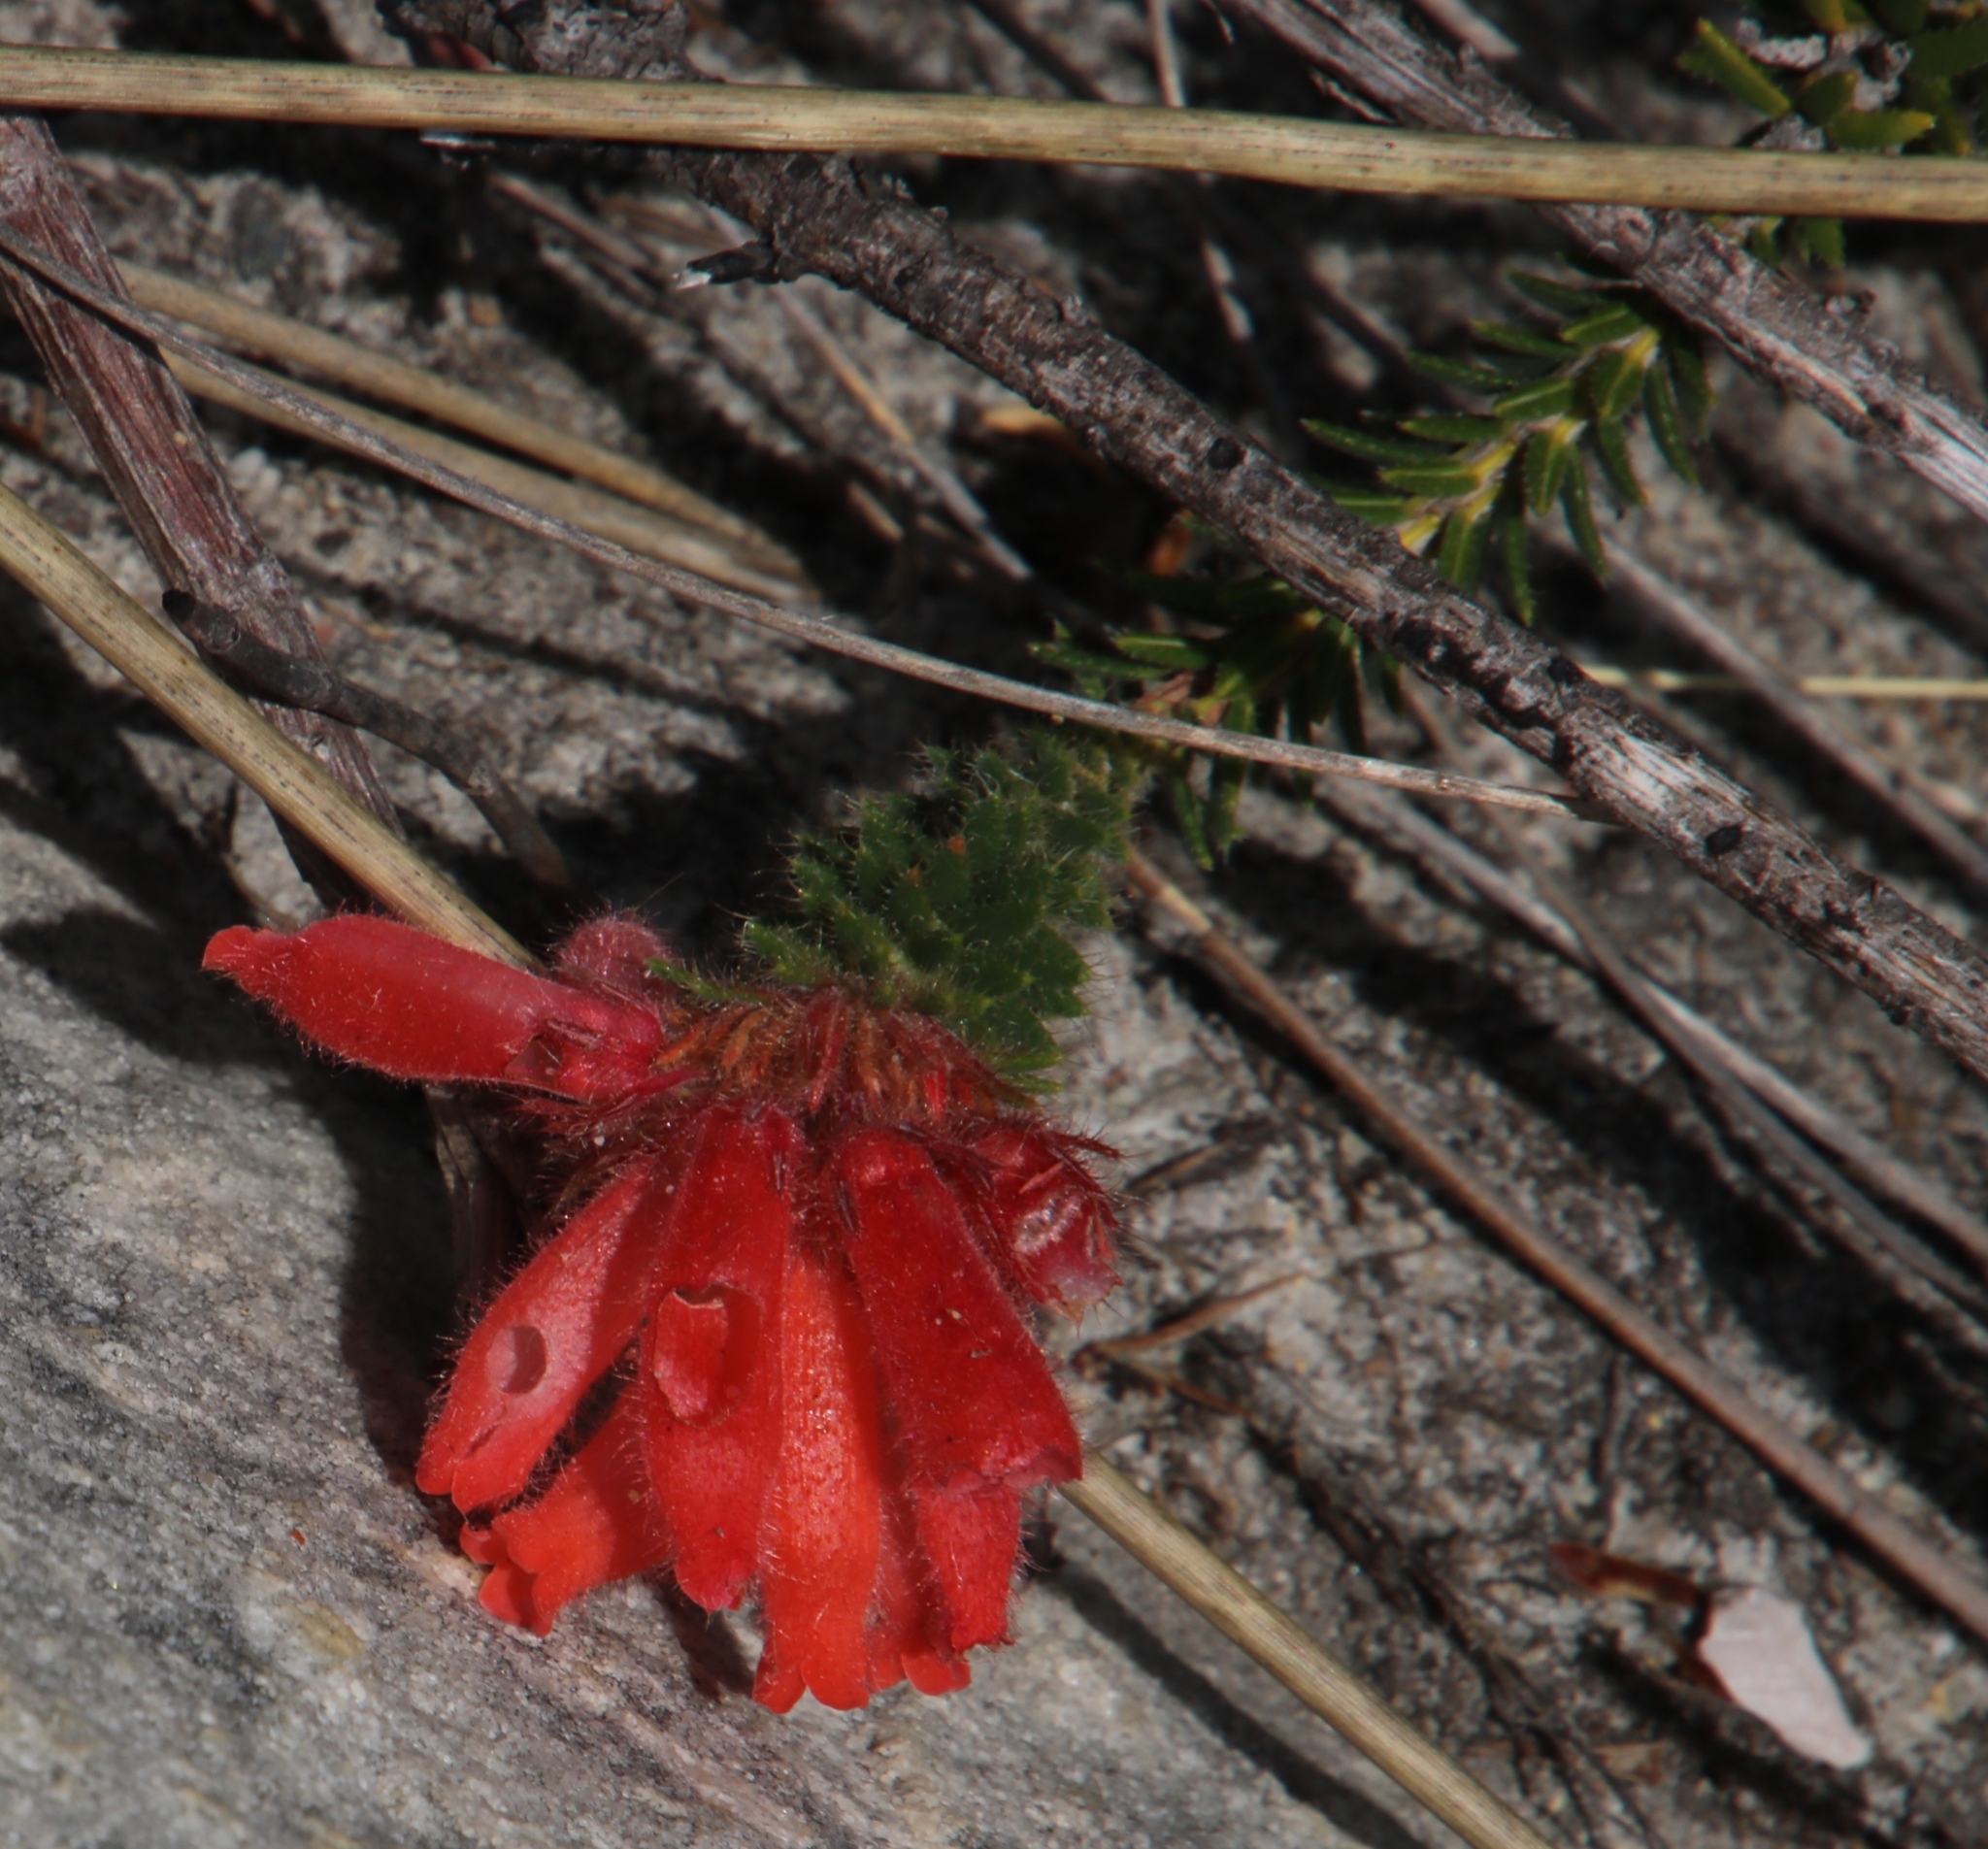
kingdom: Plantae
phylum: Tracheophyta
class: Magnoliopsida
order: Ericales
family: Ericaceae
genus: Erica
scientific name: Erica cerinthoides
